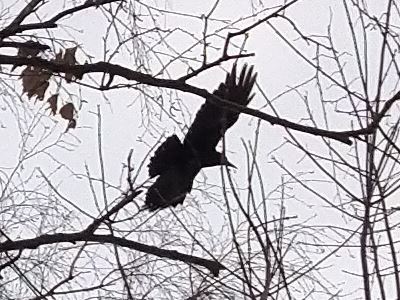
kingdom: Animalia
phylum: Chordata
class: Aves
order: Passeriformes
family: Corvidae
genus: Corvus
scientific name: Corvus frugilegus
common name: Rook
